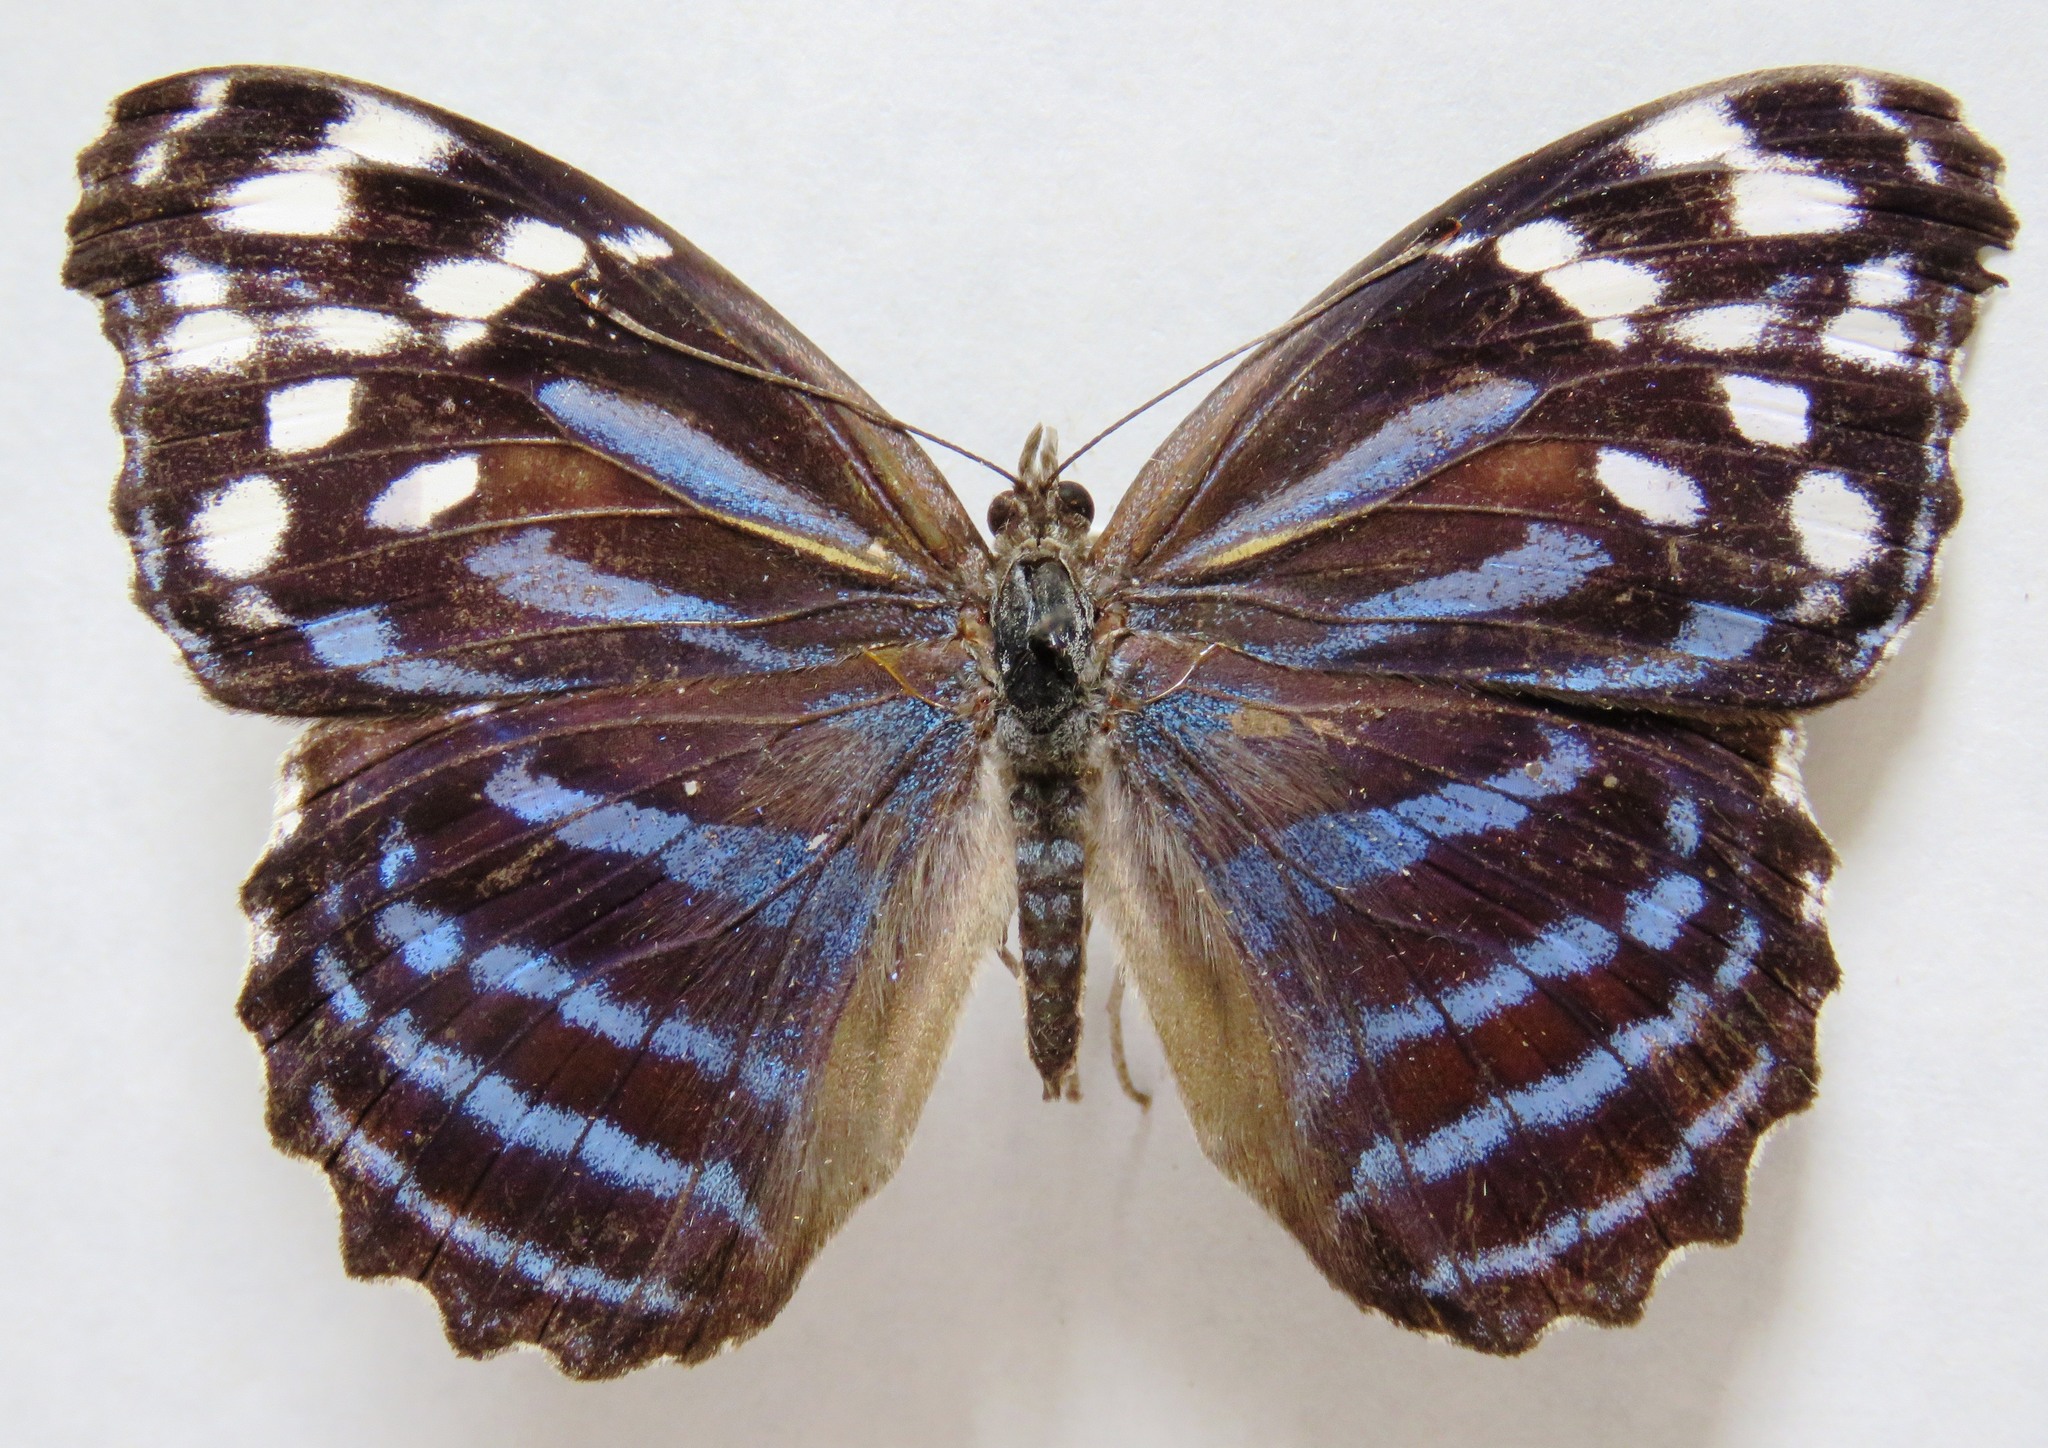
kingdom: Animalia
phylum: Arthropoda
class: Insecta
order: Lepidoptera
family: Nymphalidae
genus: Myscelia
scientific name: Myscelia ethusa
